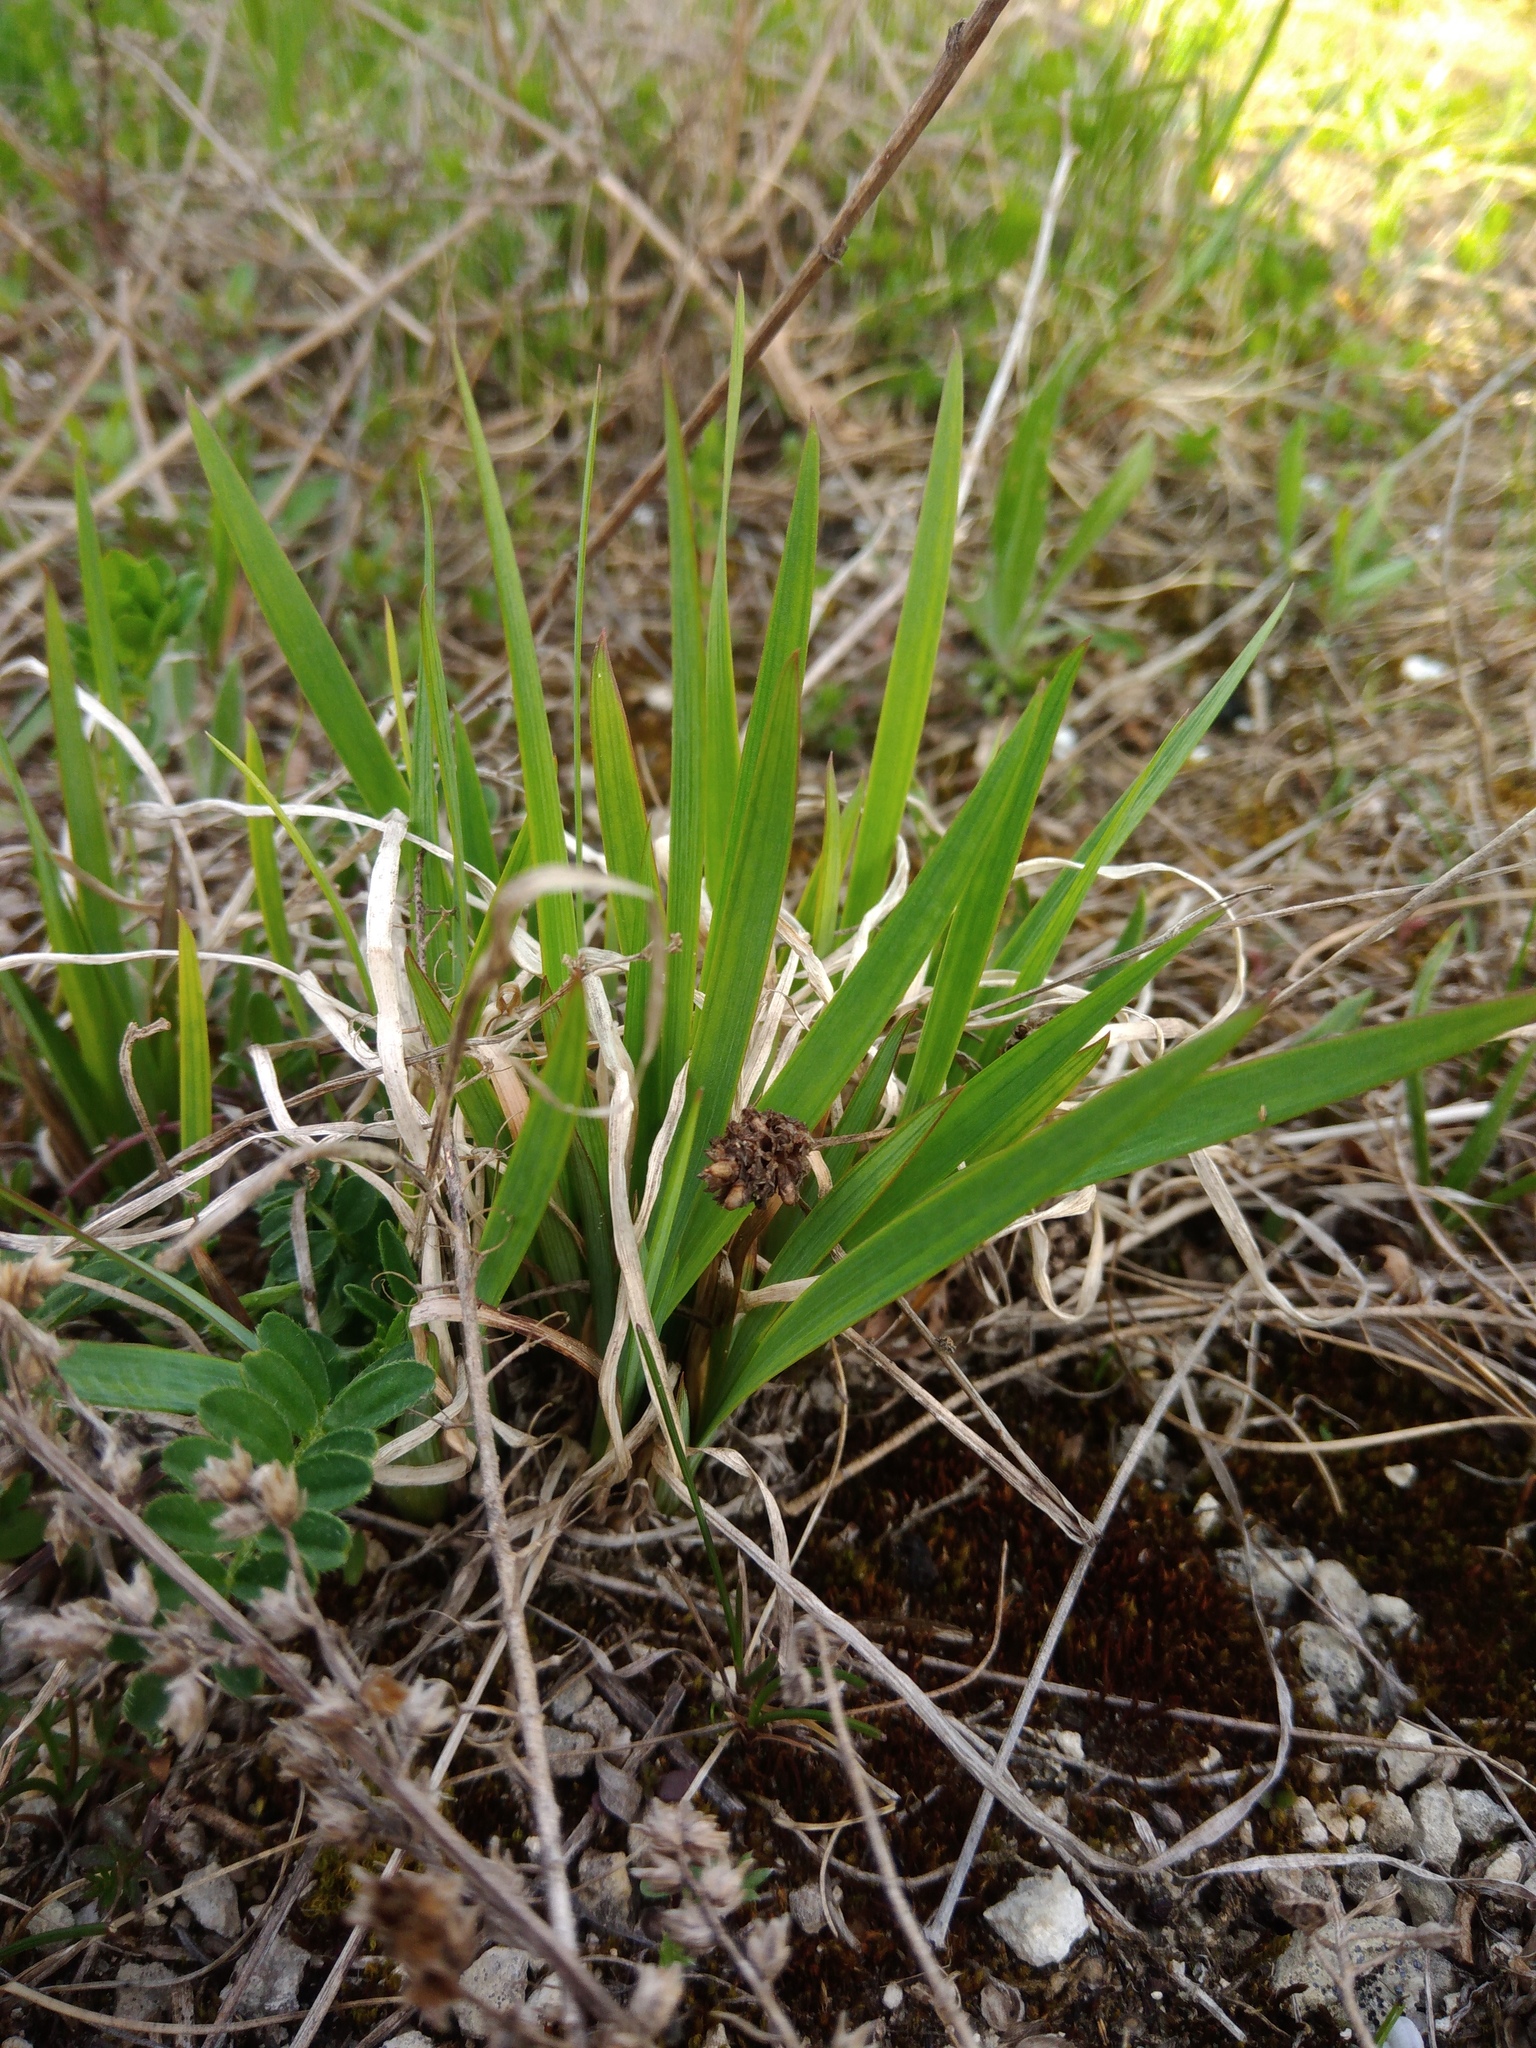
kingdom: Plantae
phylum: Tracheophyta
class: Liliopsida
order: Asparagales
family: Iridaceae
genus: Iris
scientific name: Iris graminea
